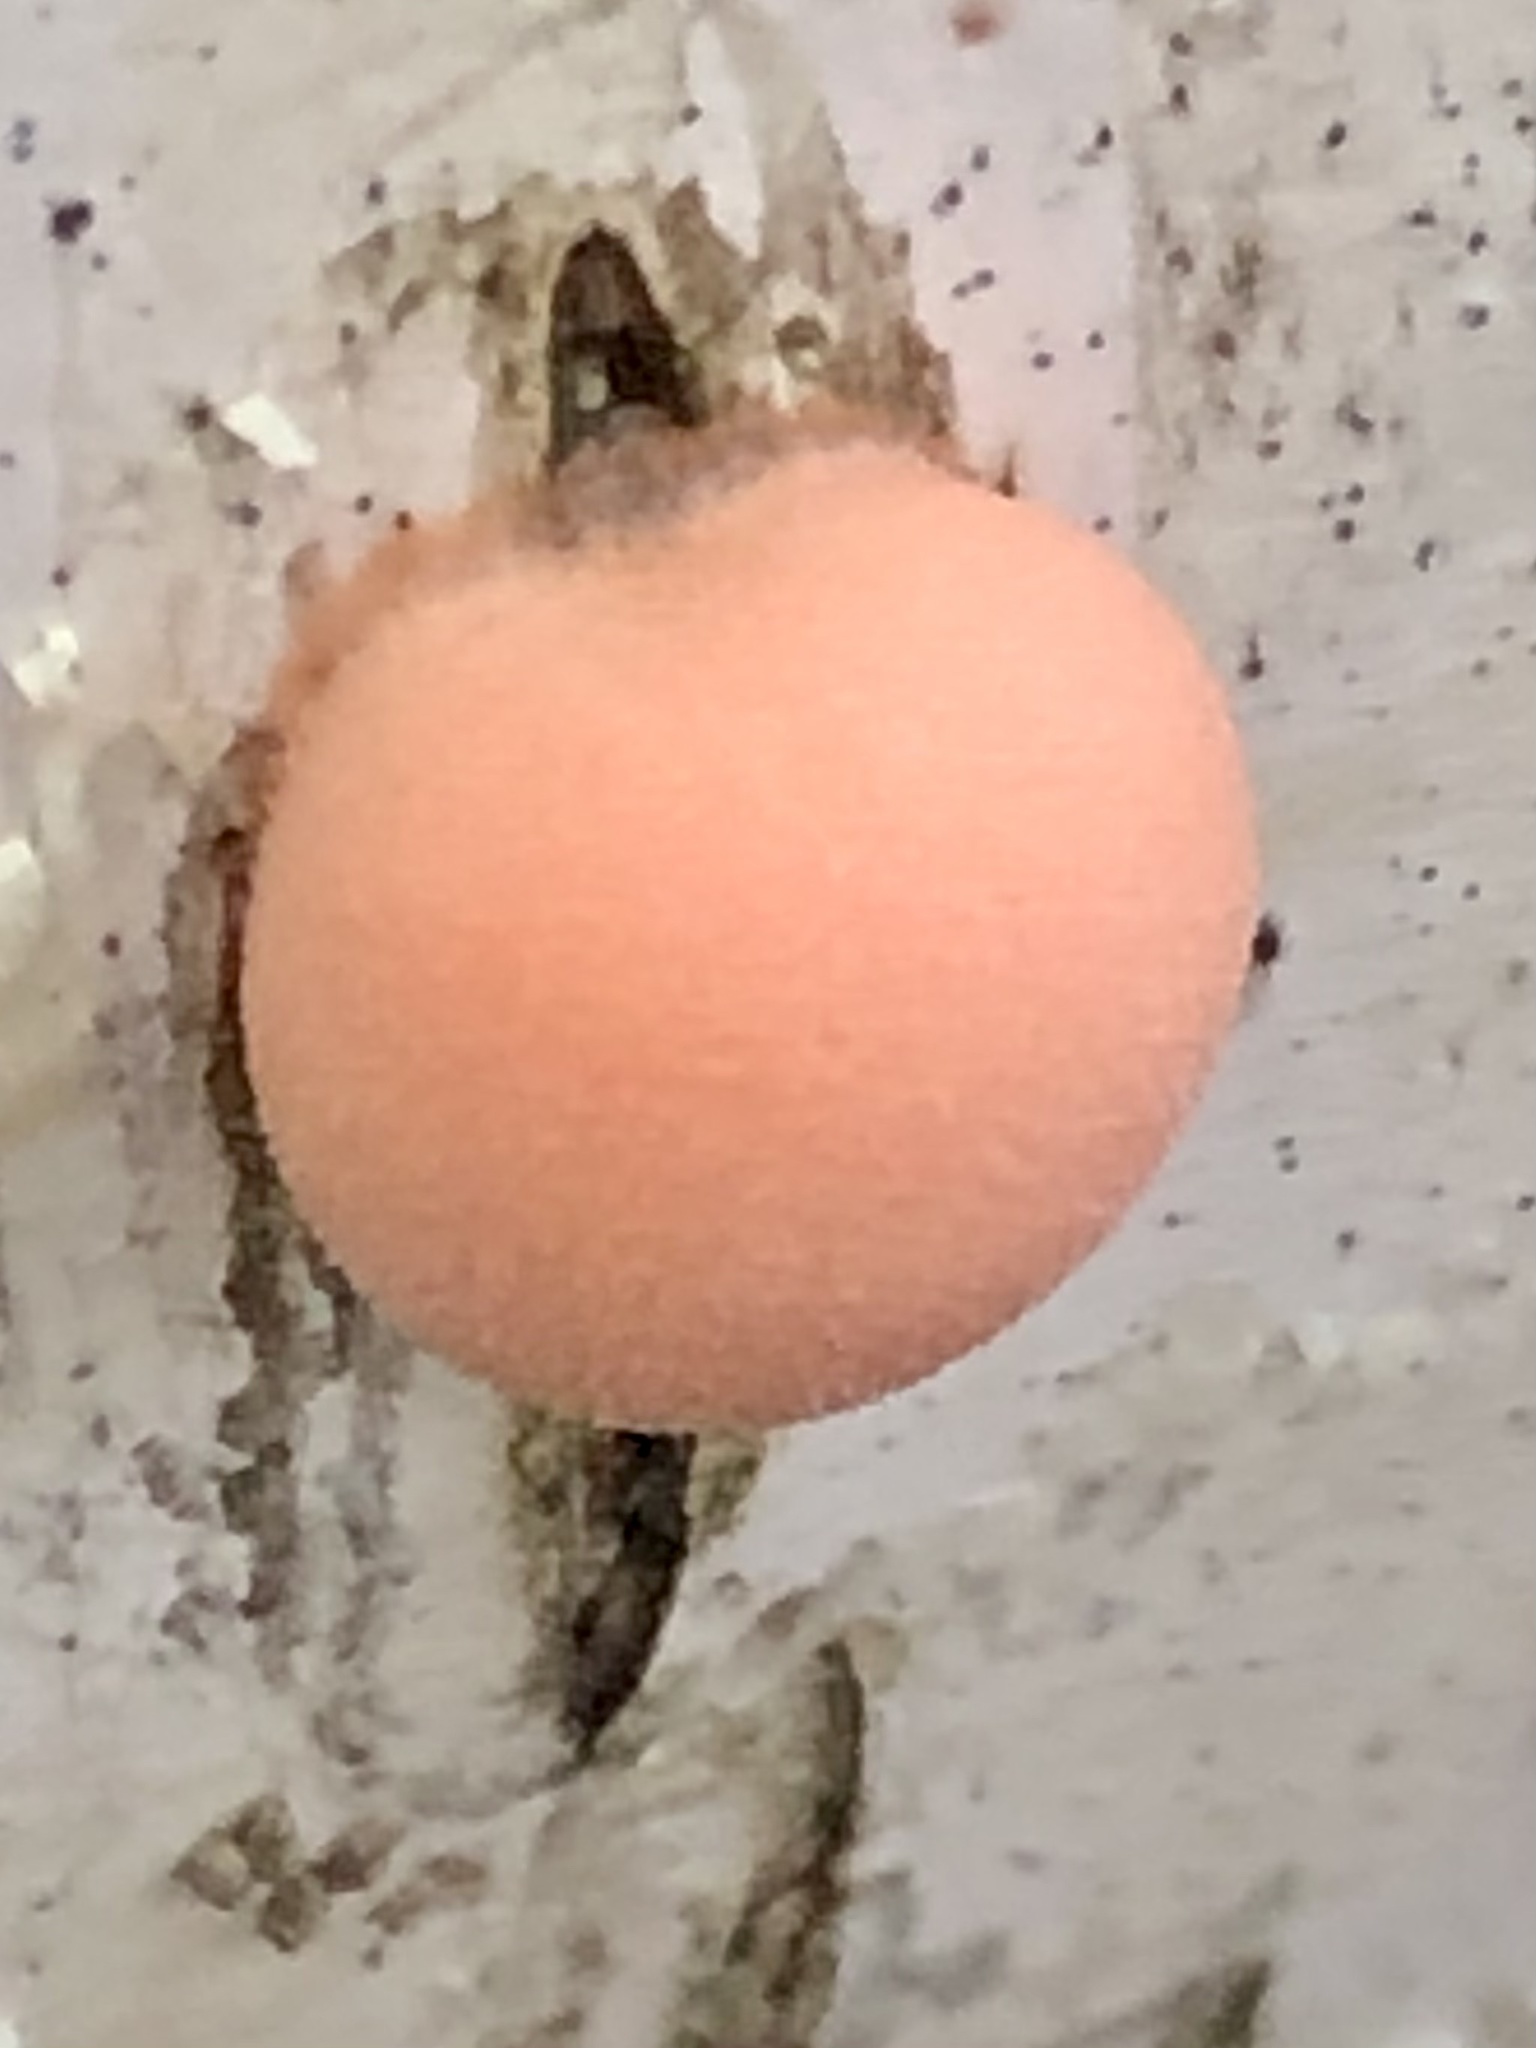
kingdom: Protozoa
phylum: Mycetozoa
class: Myxomycetes
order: Cribrariales
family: Tubiferaceae
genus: Lycogala
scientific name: Lycogala epidendrum
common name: Wolf's milk
